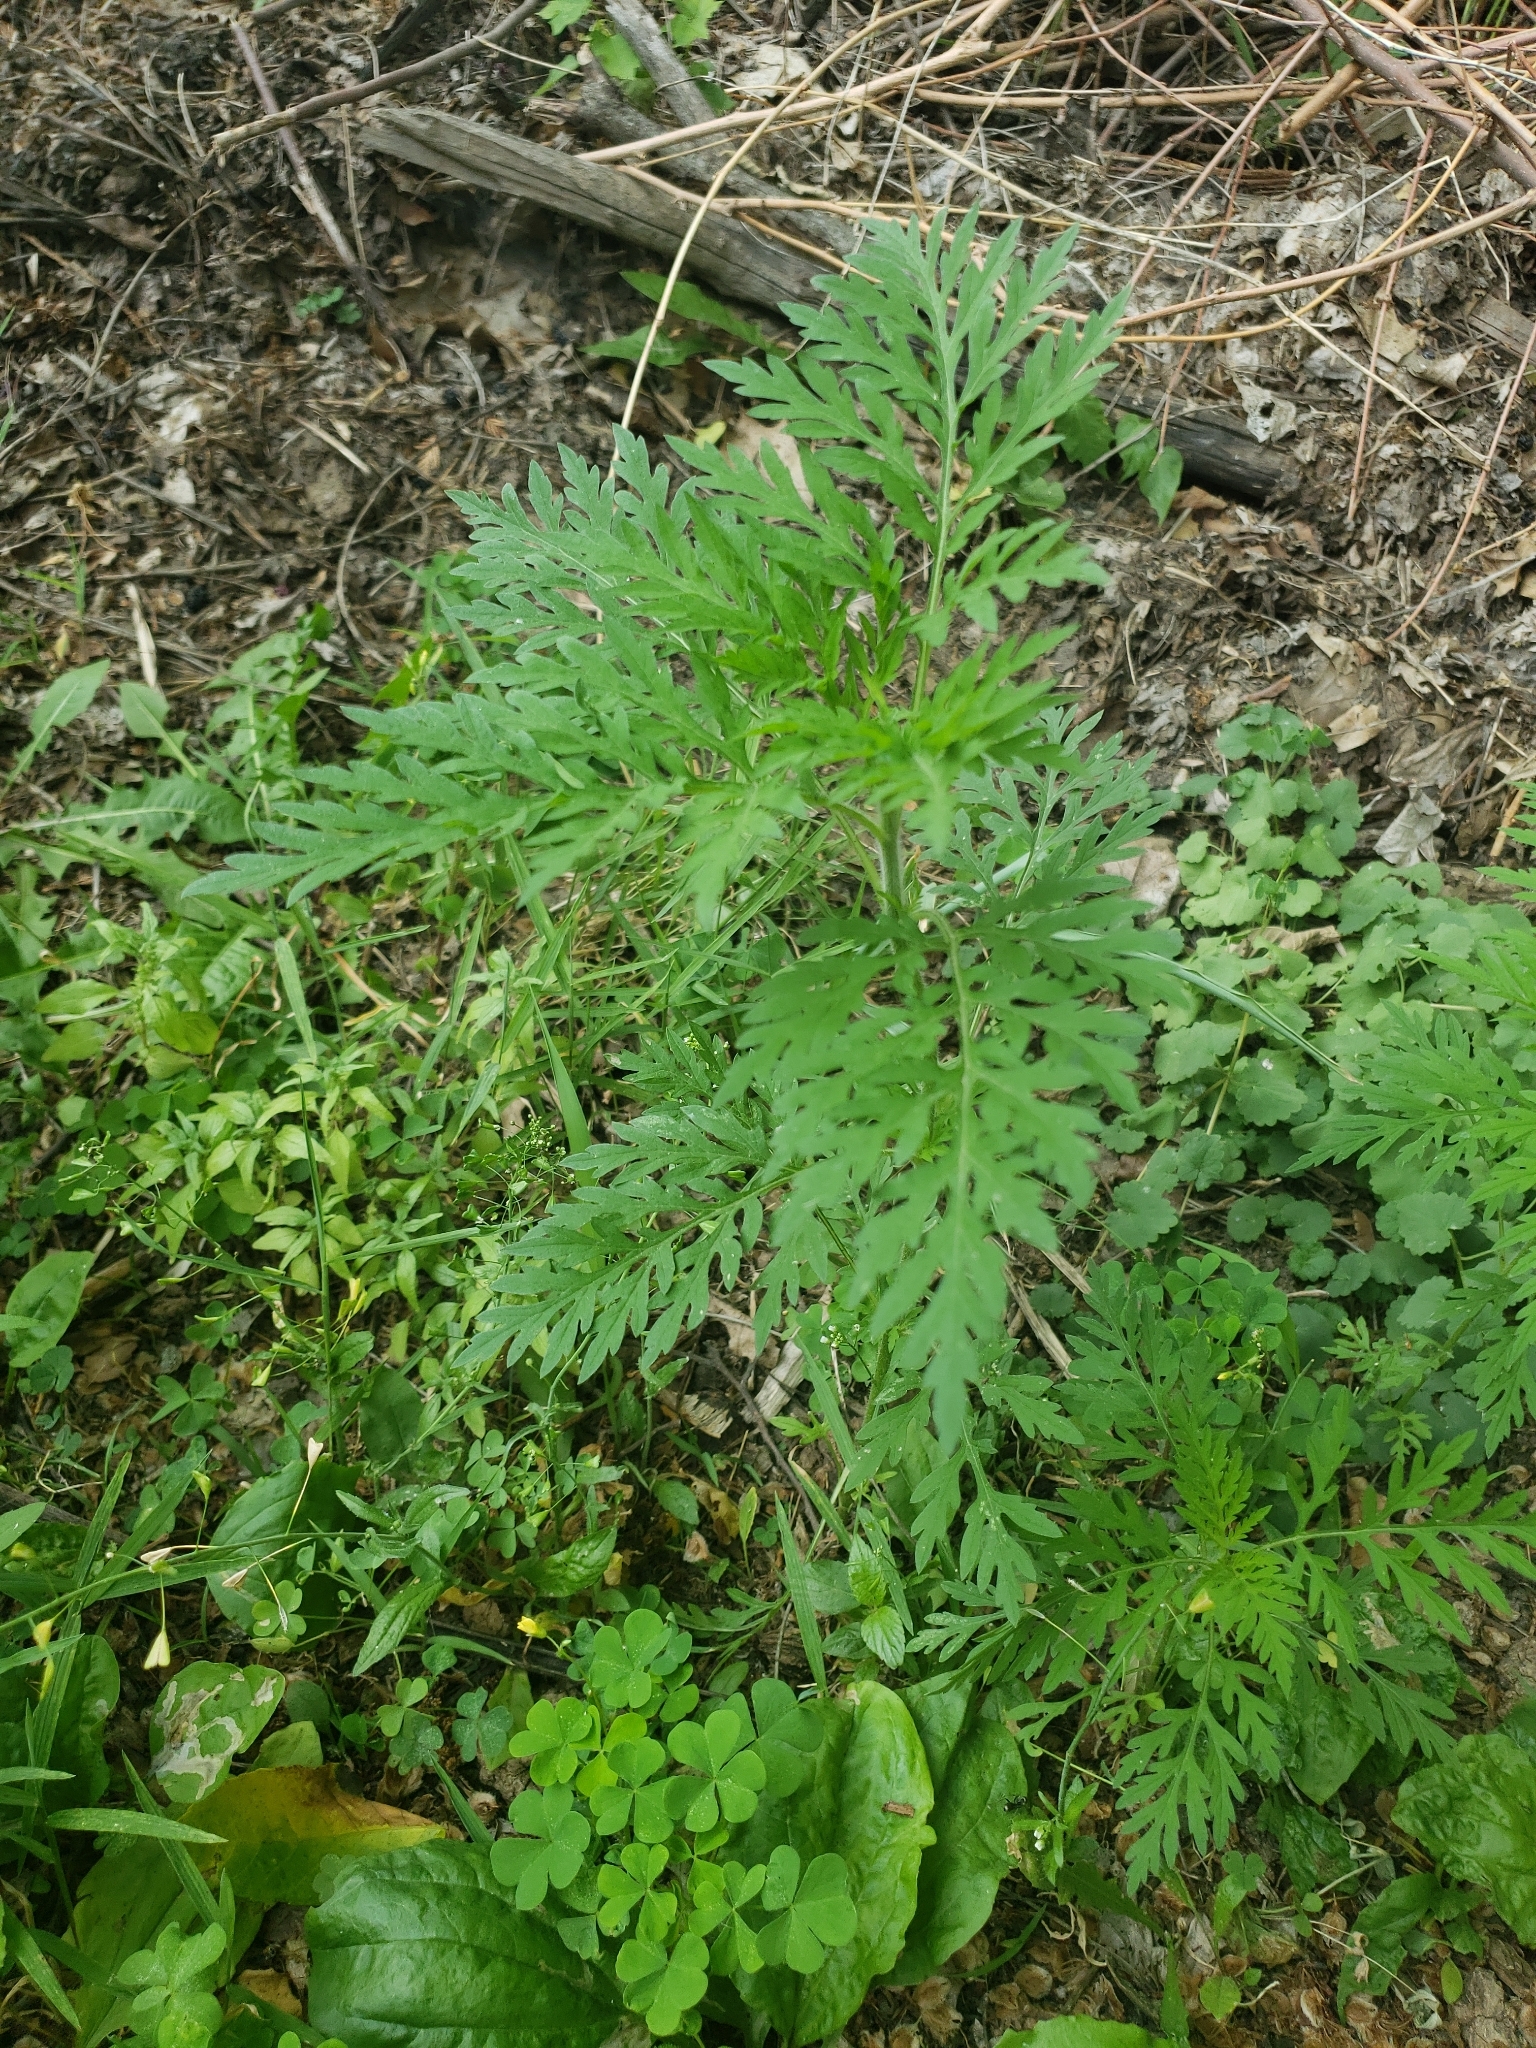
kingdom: Plantae
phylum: Tracheophyta
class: Magnoliopsida
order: Asterales
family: Asteraceae
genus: Ambrosia
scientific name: Ambrosia artemisiifolia
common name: Annual ragweed
